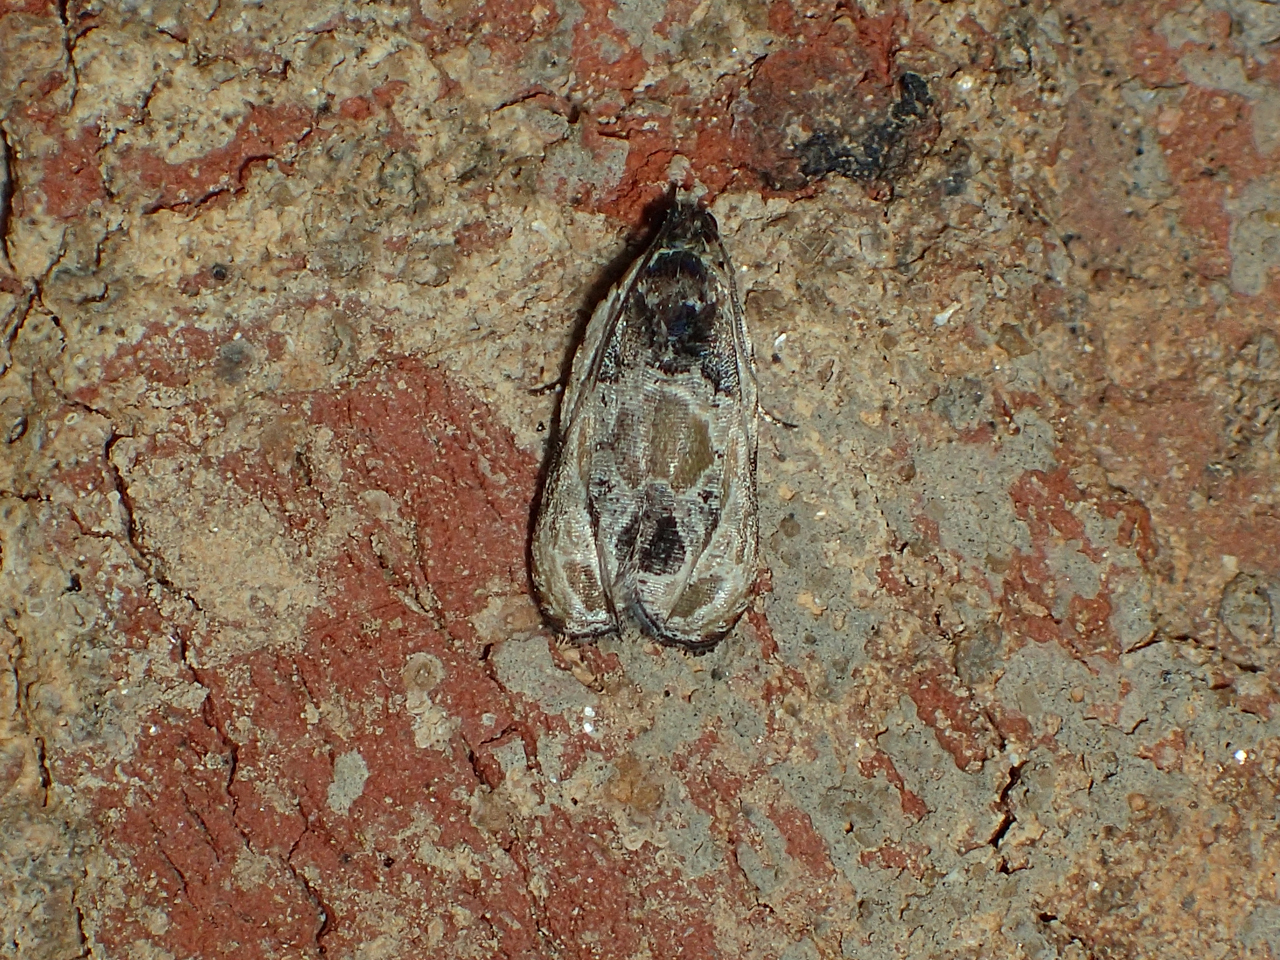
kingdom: Animalia
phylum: Arthropoda
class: Insecta
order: Lepidoptera
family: Tortricidae
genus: Olethreutes
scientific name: Olethreutes griseoalbana
